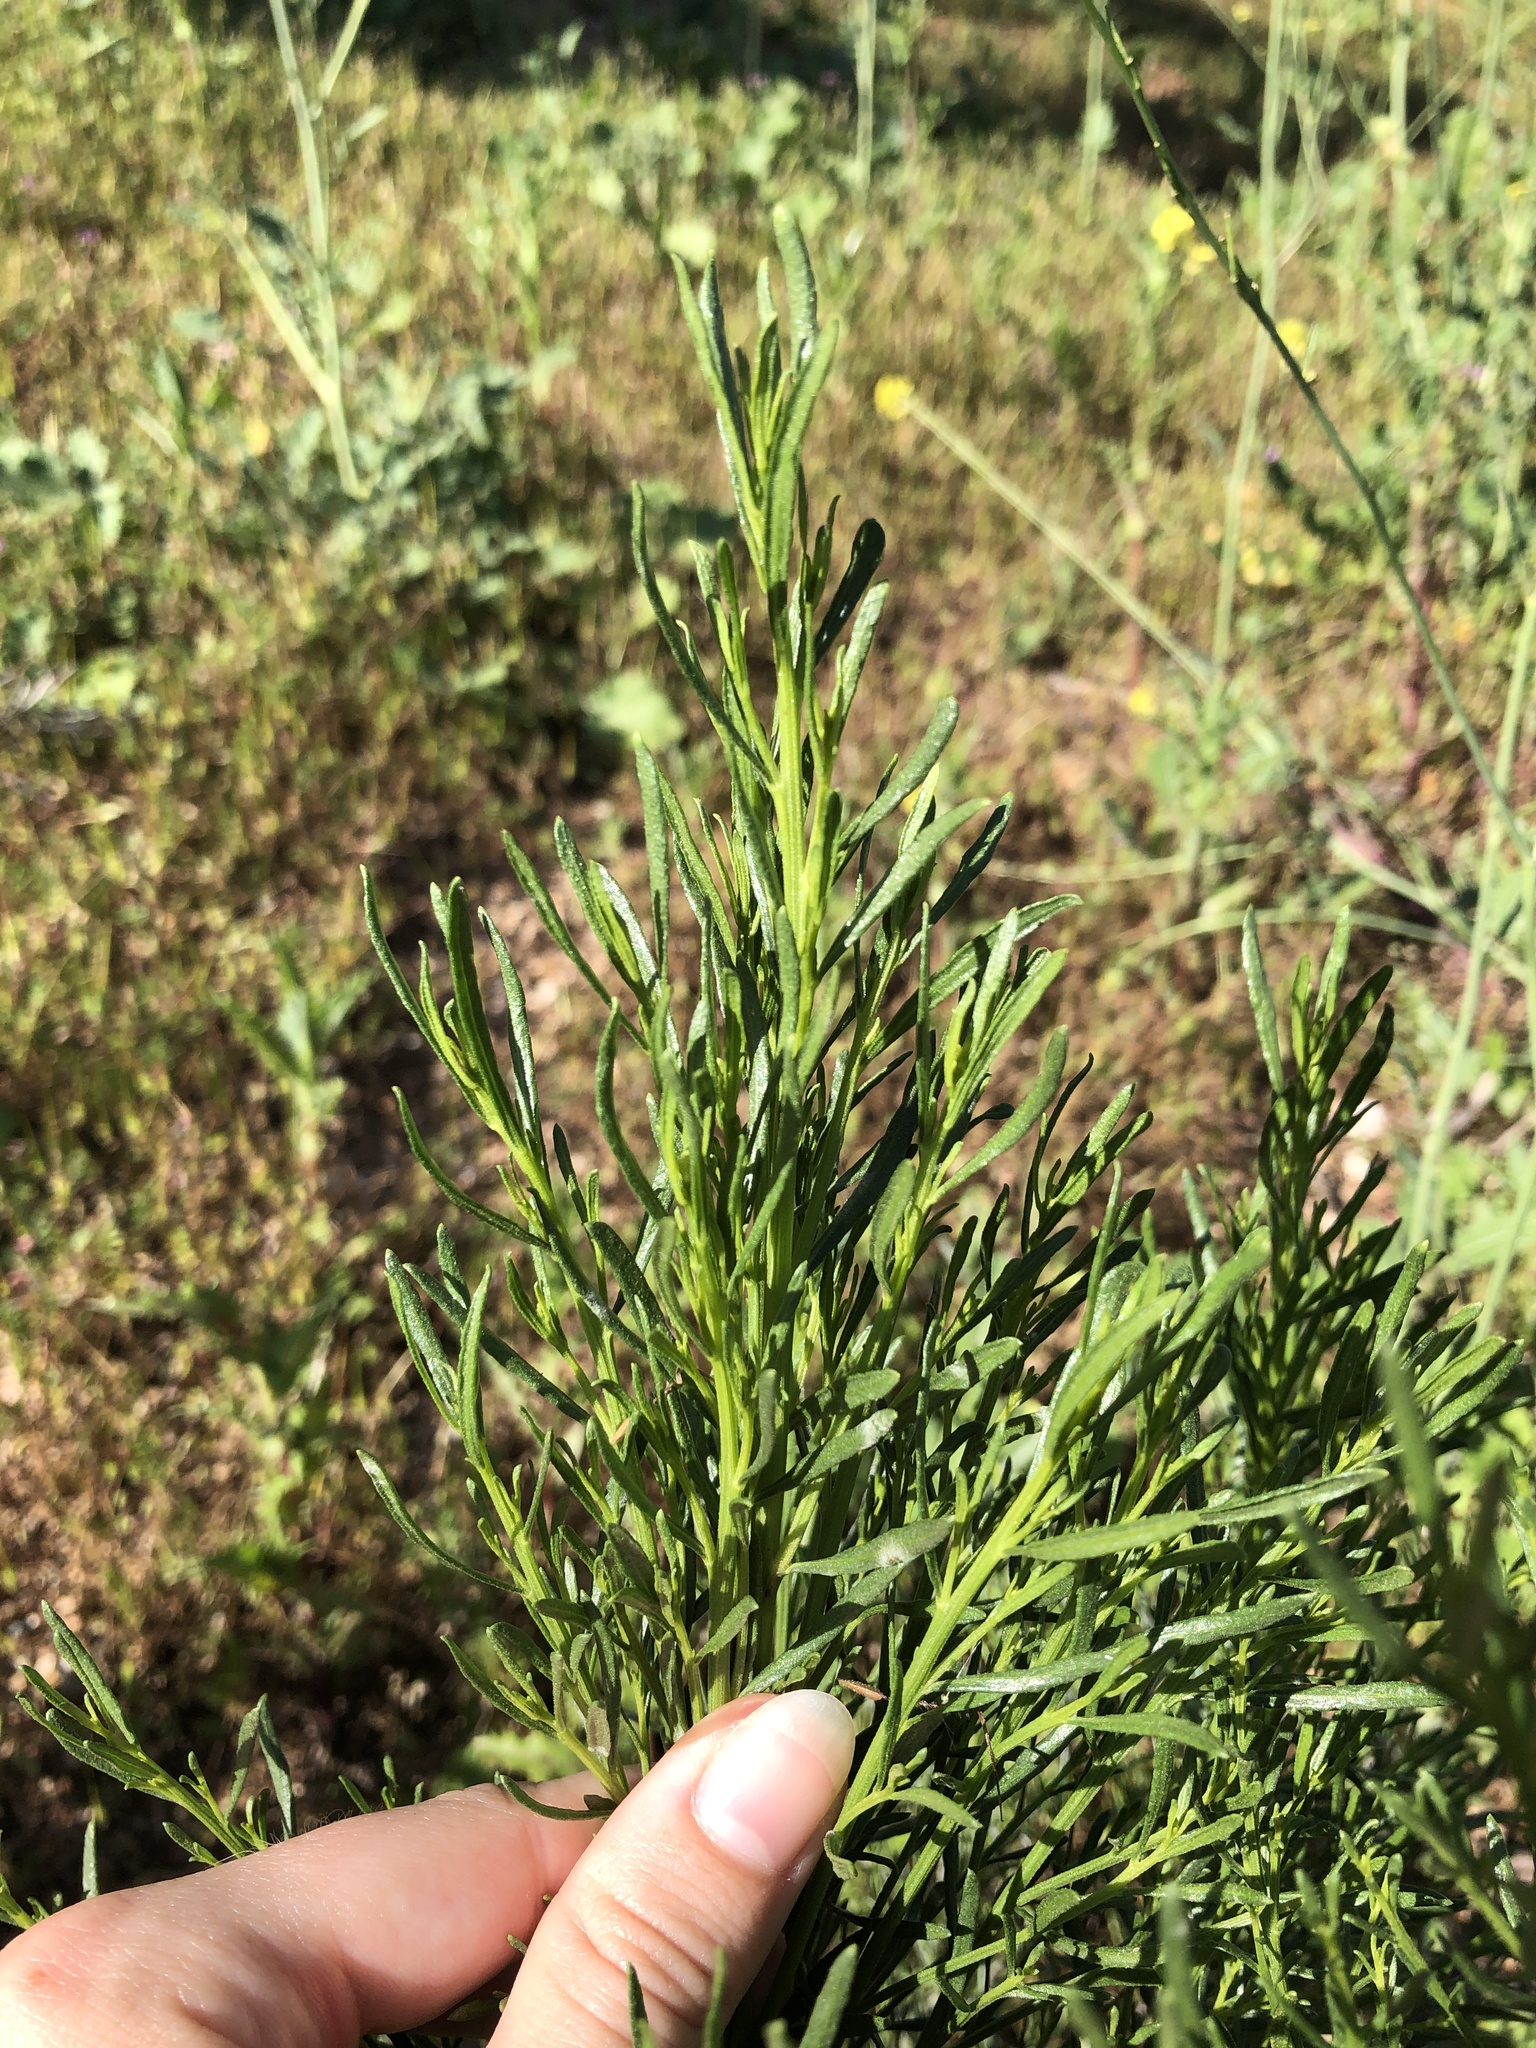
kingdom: Plantae
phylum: Tracheophyta
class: Magnoliopsida
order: Asterales
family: Asteraceae
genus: Baccharis
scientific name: Baccharis sarothroides
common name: Desert-broom
